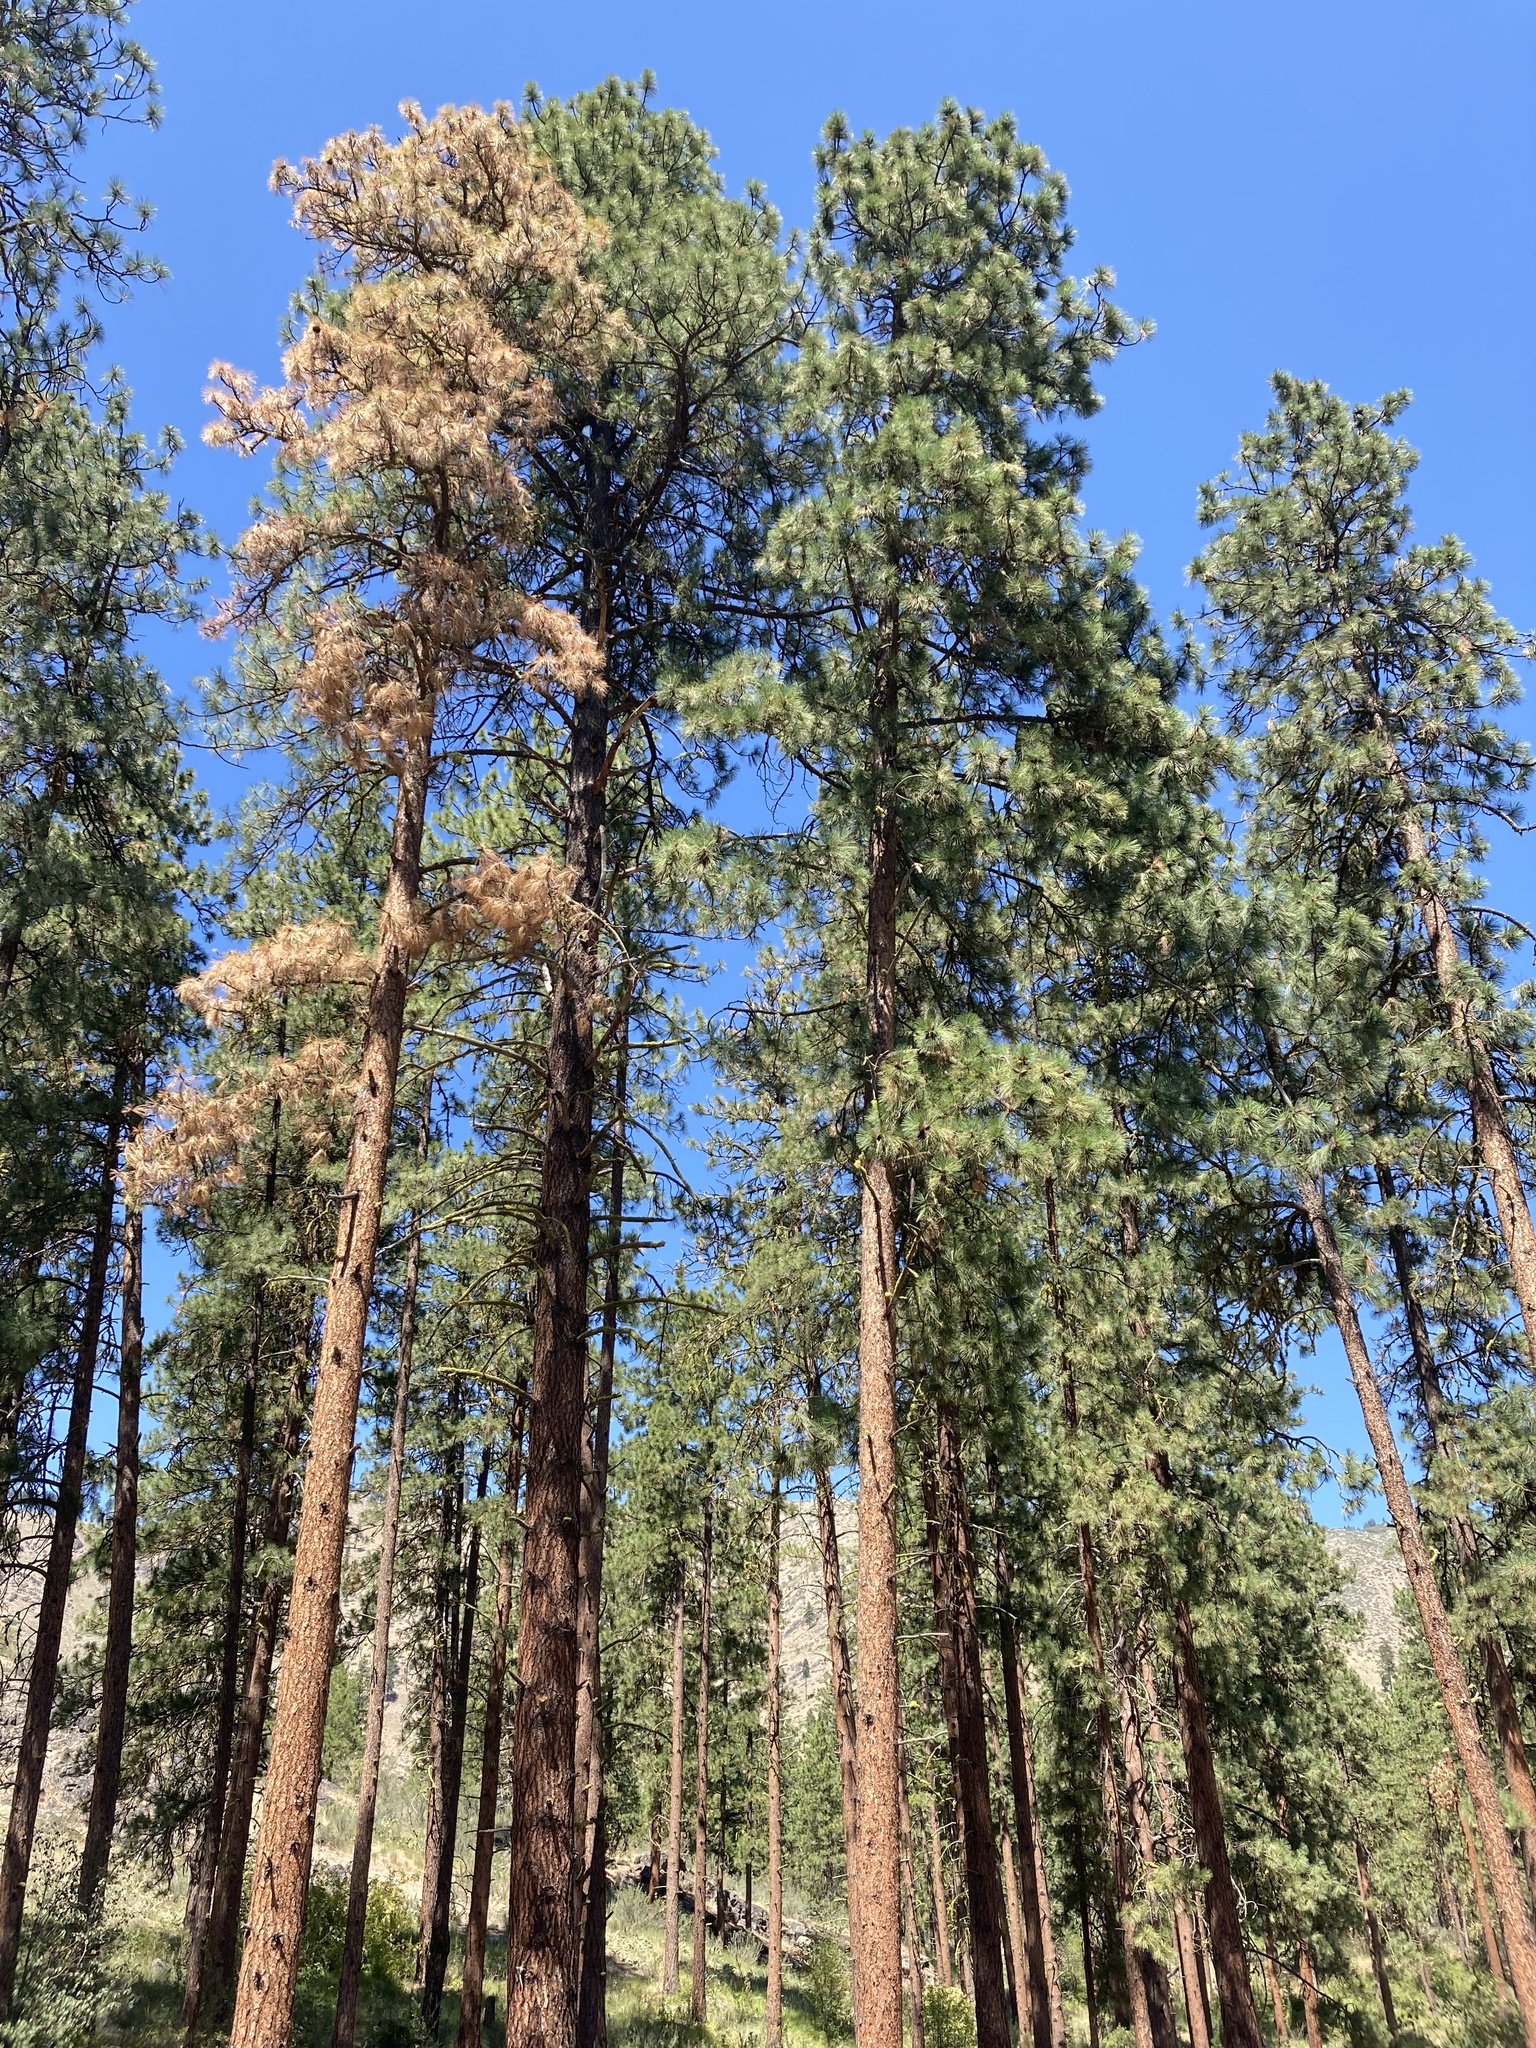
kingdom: Plantae
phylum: Tracheophyta
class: Pinopsida
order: Pinales
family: Pinaceae
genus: Pinus
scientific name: Pinus ponderosa
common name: Western yellow-pine
